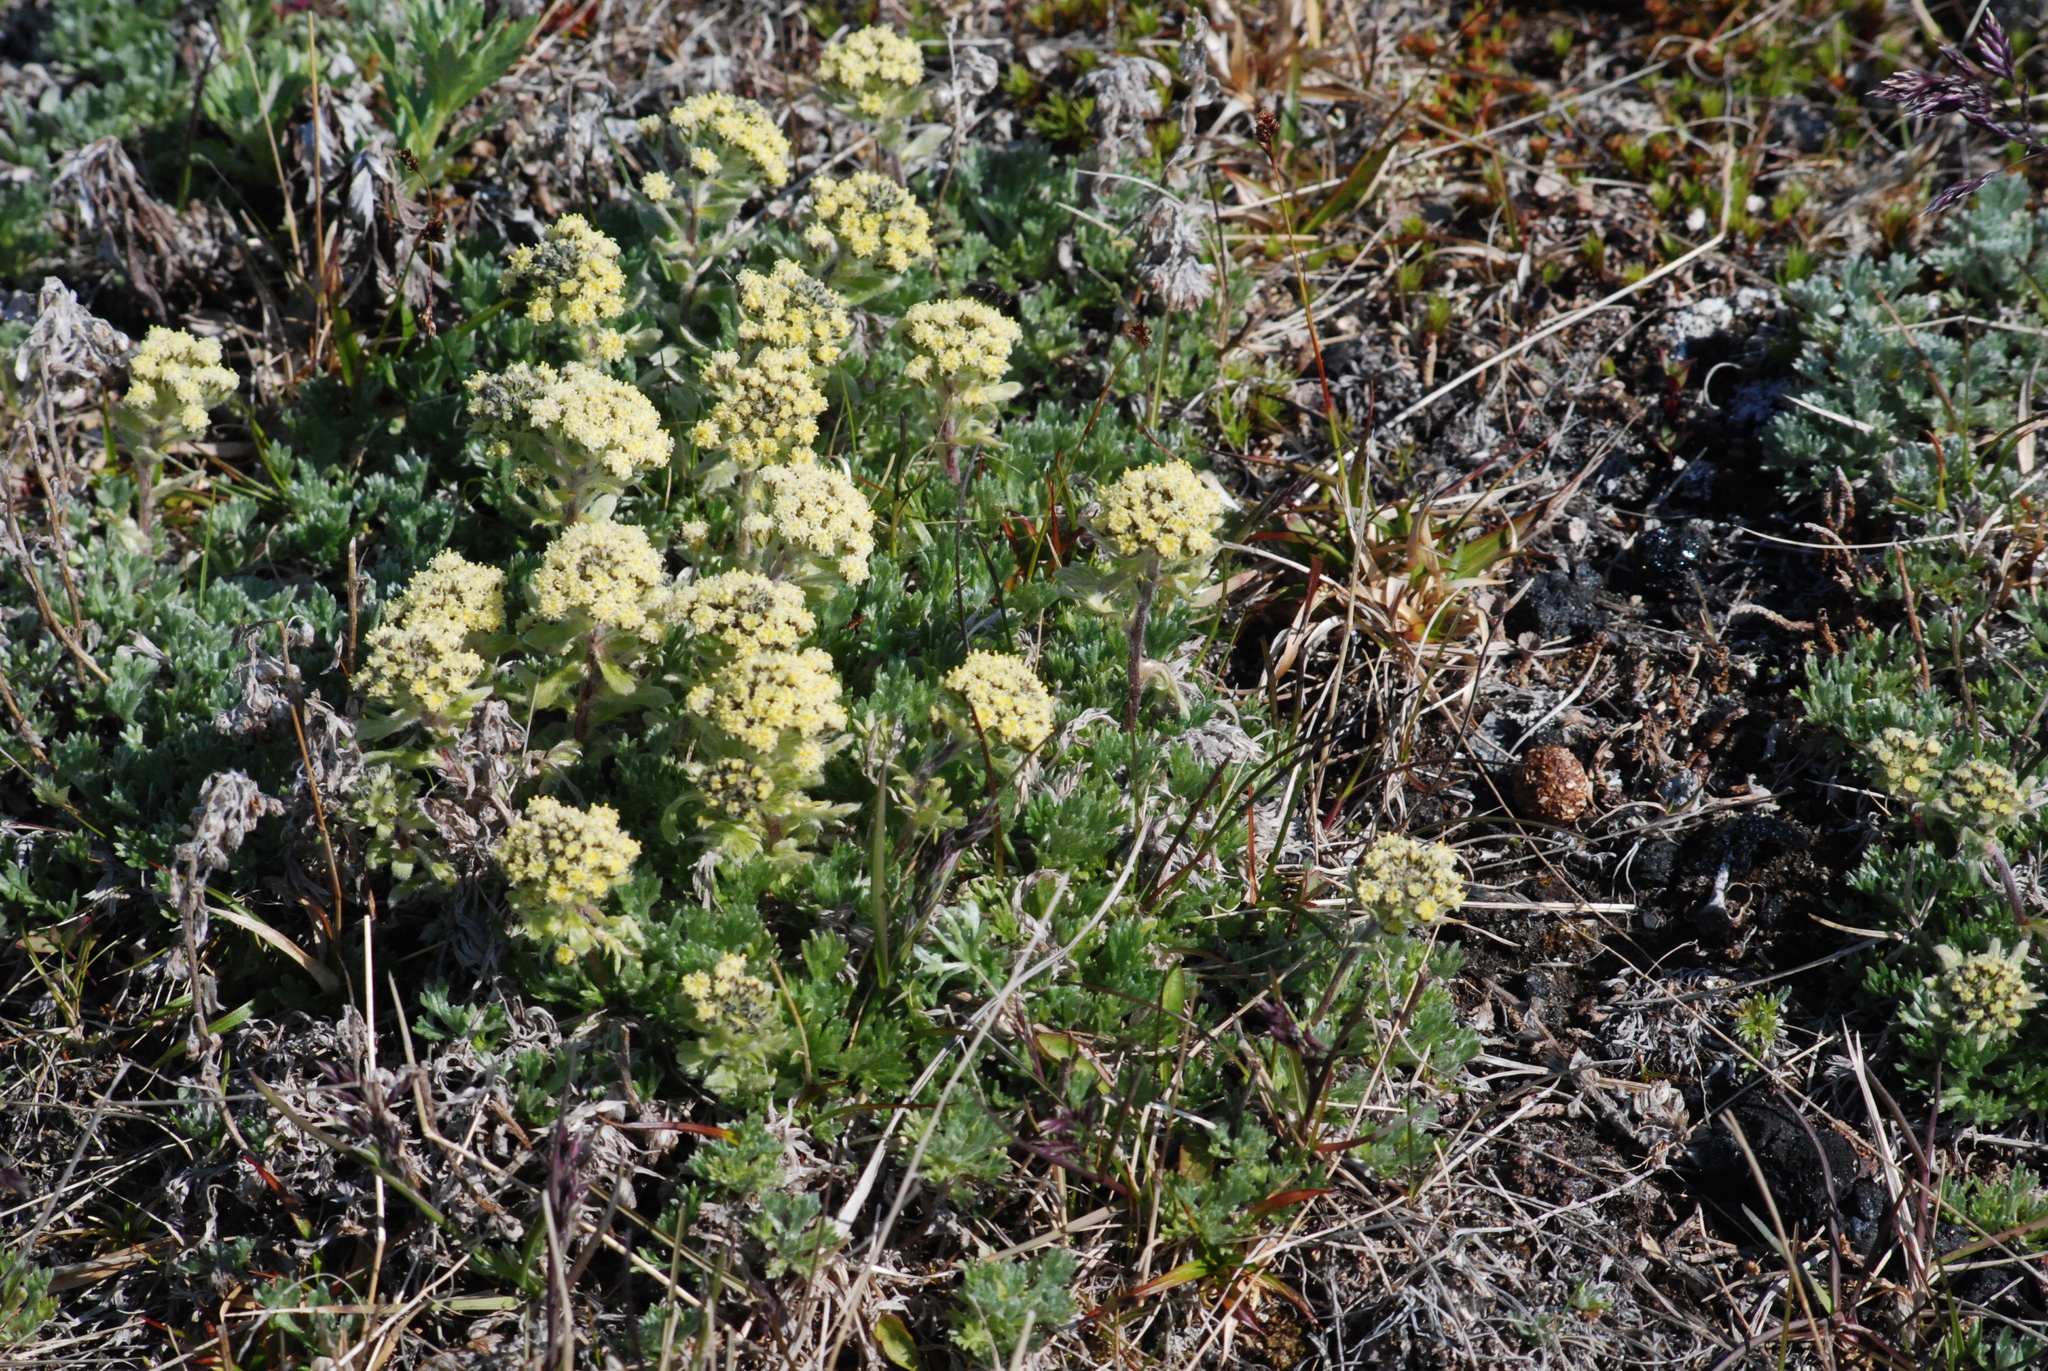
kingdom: Plantae
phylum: Tracheophyta
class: Magnoliopsida
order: Asterales
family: Asteraceae
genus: Artemisia
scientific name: Artemisia glomerata
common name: Pacific alpine wormwood
